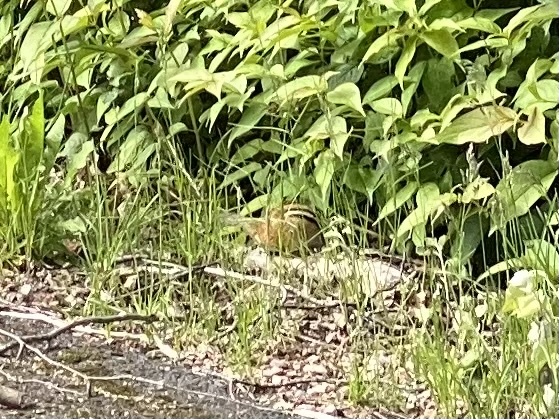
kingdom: Animalia
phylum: Chordata
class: Mammalia
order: Rodentia
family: Sciuridae
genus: Tamias
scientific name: Tamias striatus
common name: Eastern chipmunk
